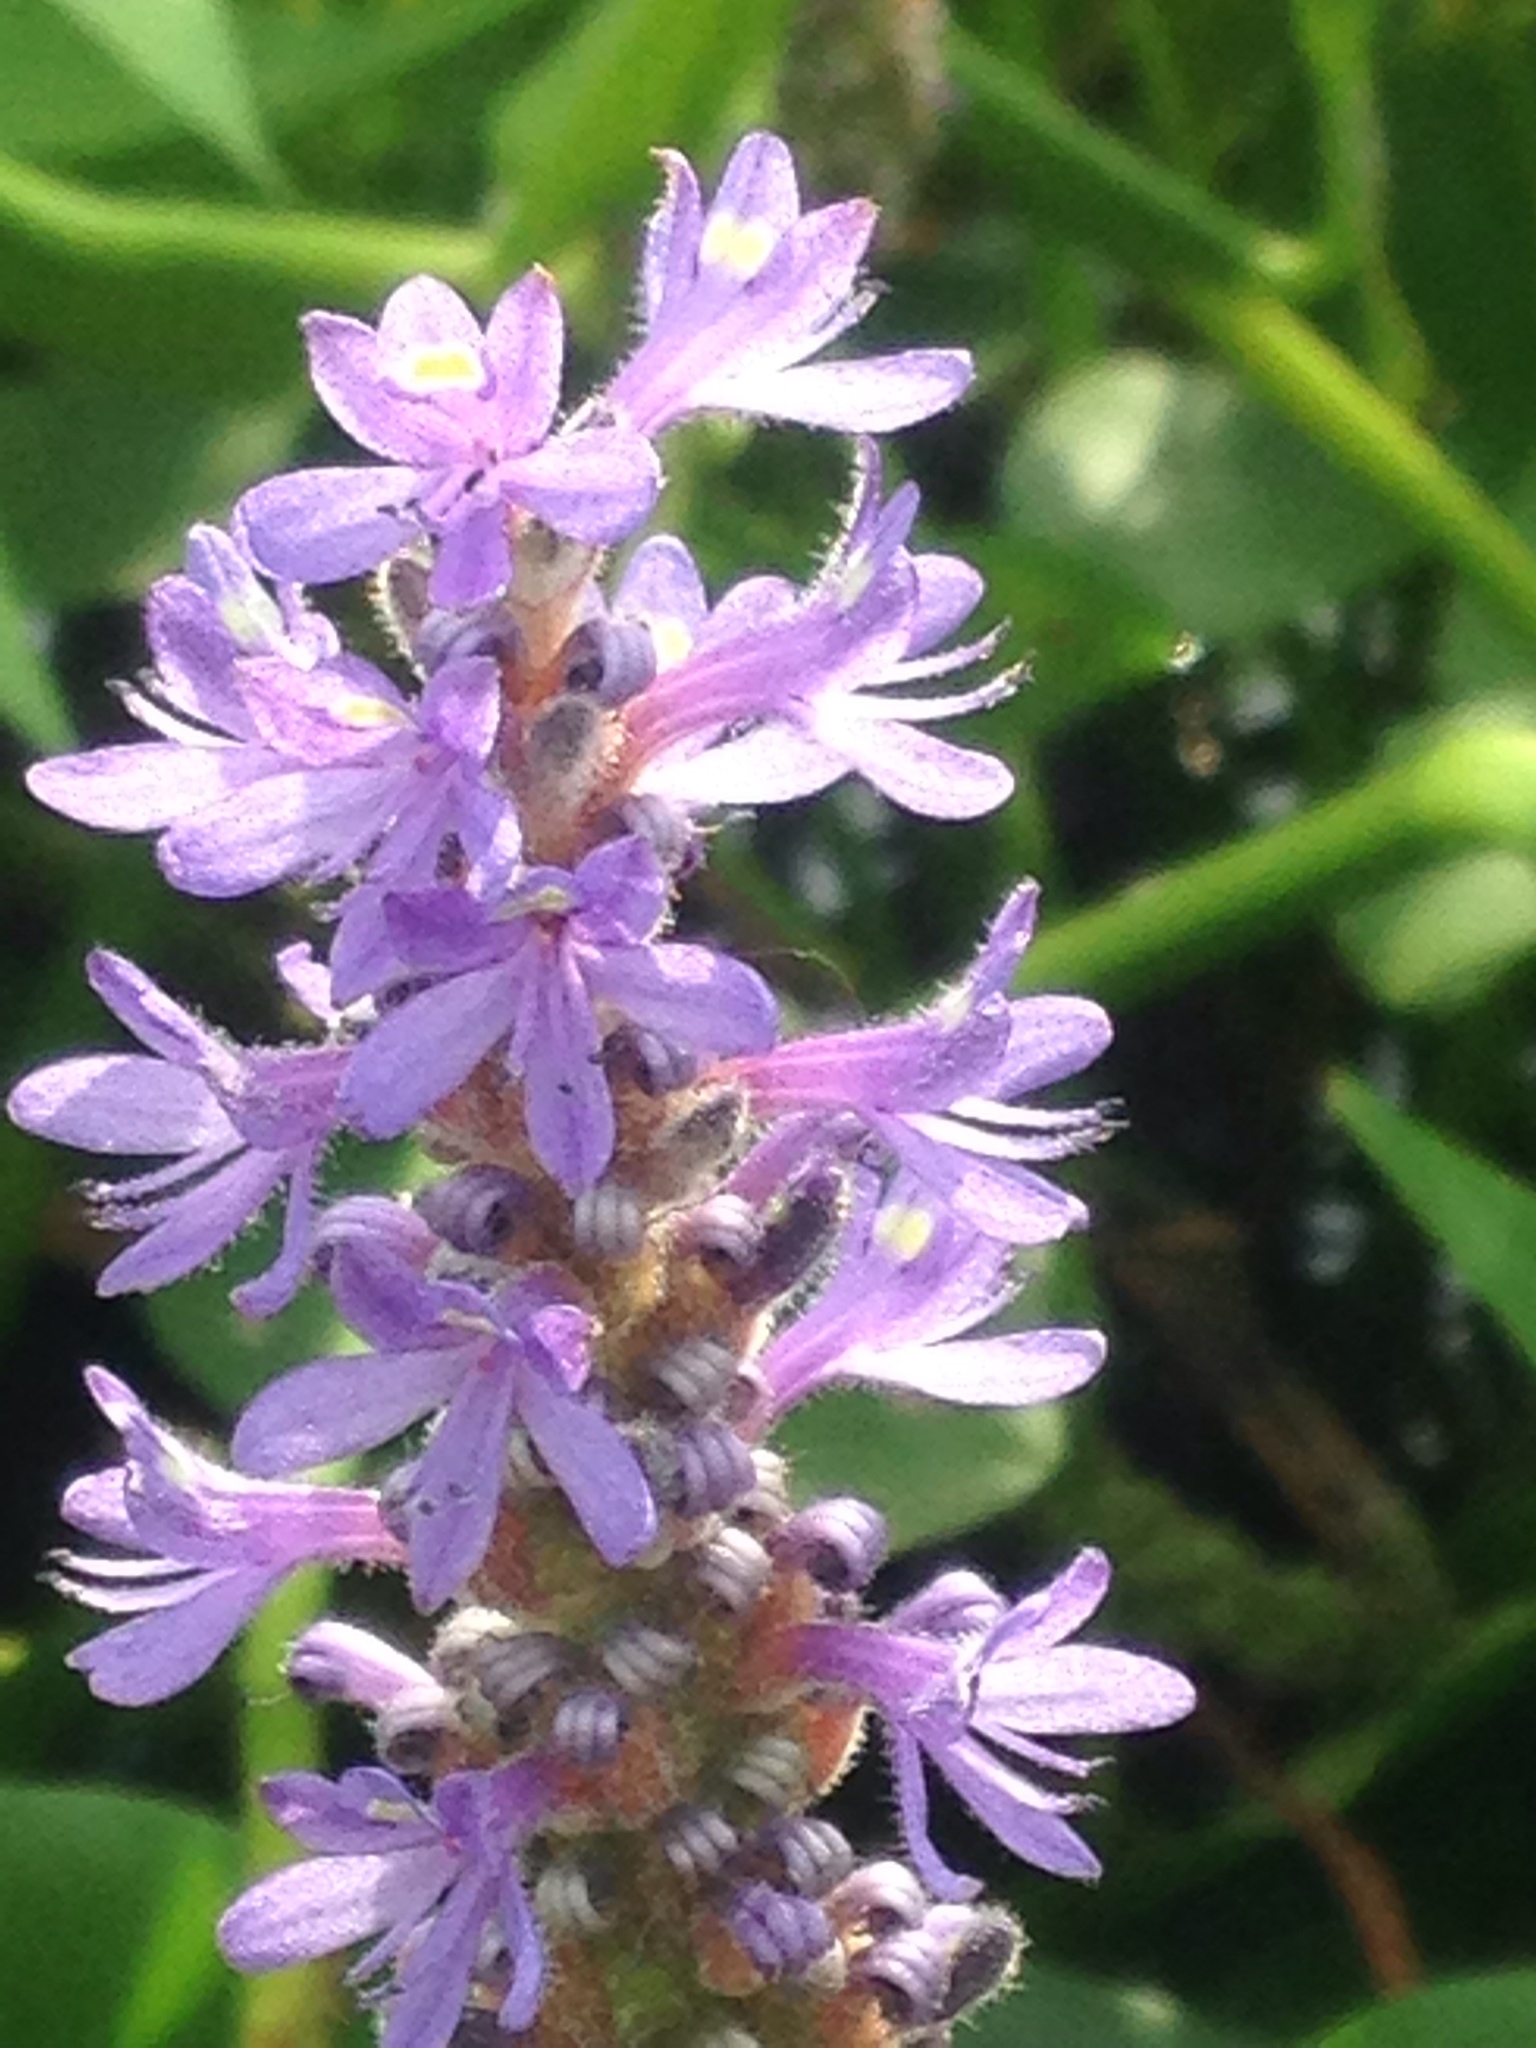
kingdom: Plantae
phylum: Tracheophyta
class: Liliopsida
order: Commelinales
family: Pontederiaceae
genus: Pontederia
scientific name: Pontederia cordata
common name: Pickerelweed
